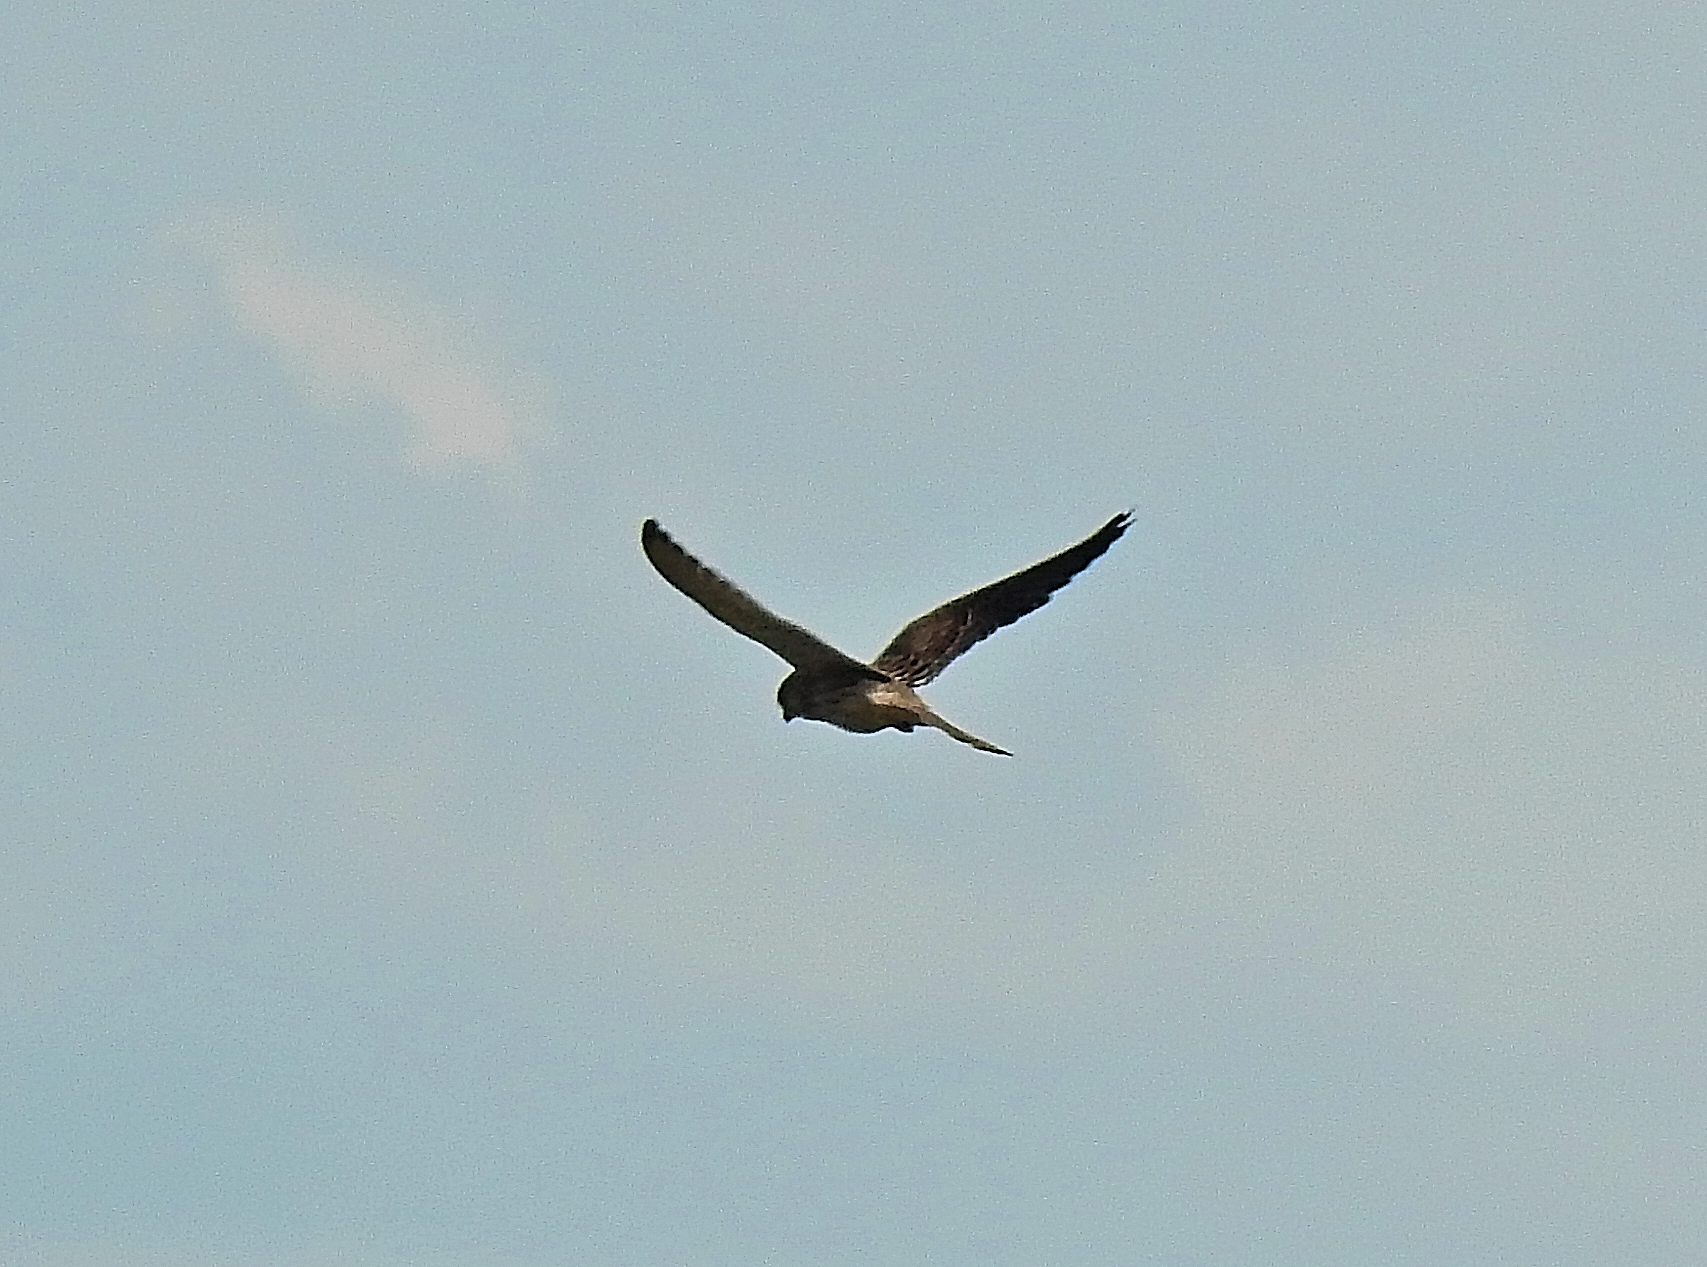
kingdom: Animalia
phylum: Chordata
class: Aves
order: Falconiformes
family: Falconidae
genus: Falco
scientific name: Falco tinnunculus
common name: Common kestrel
